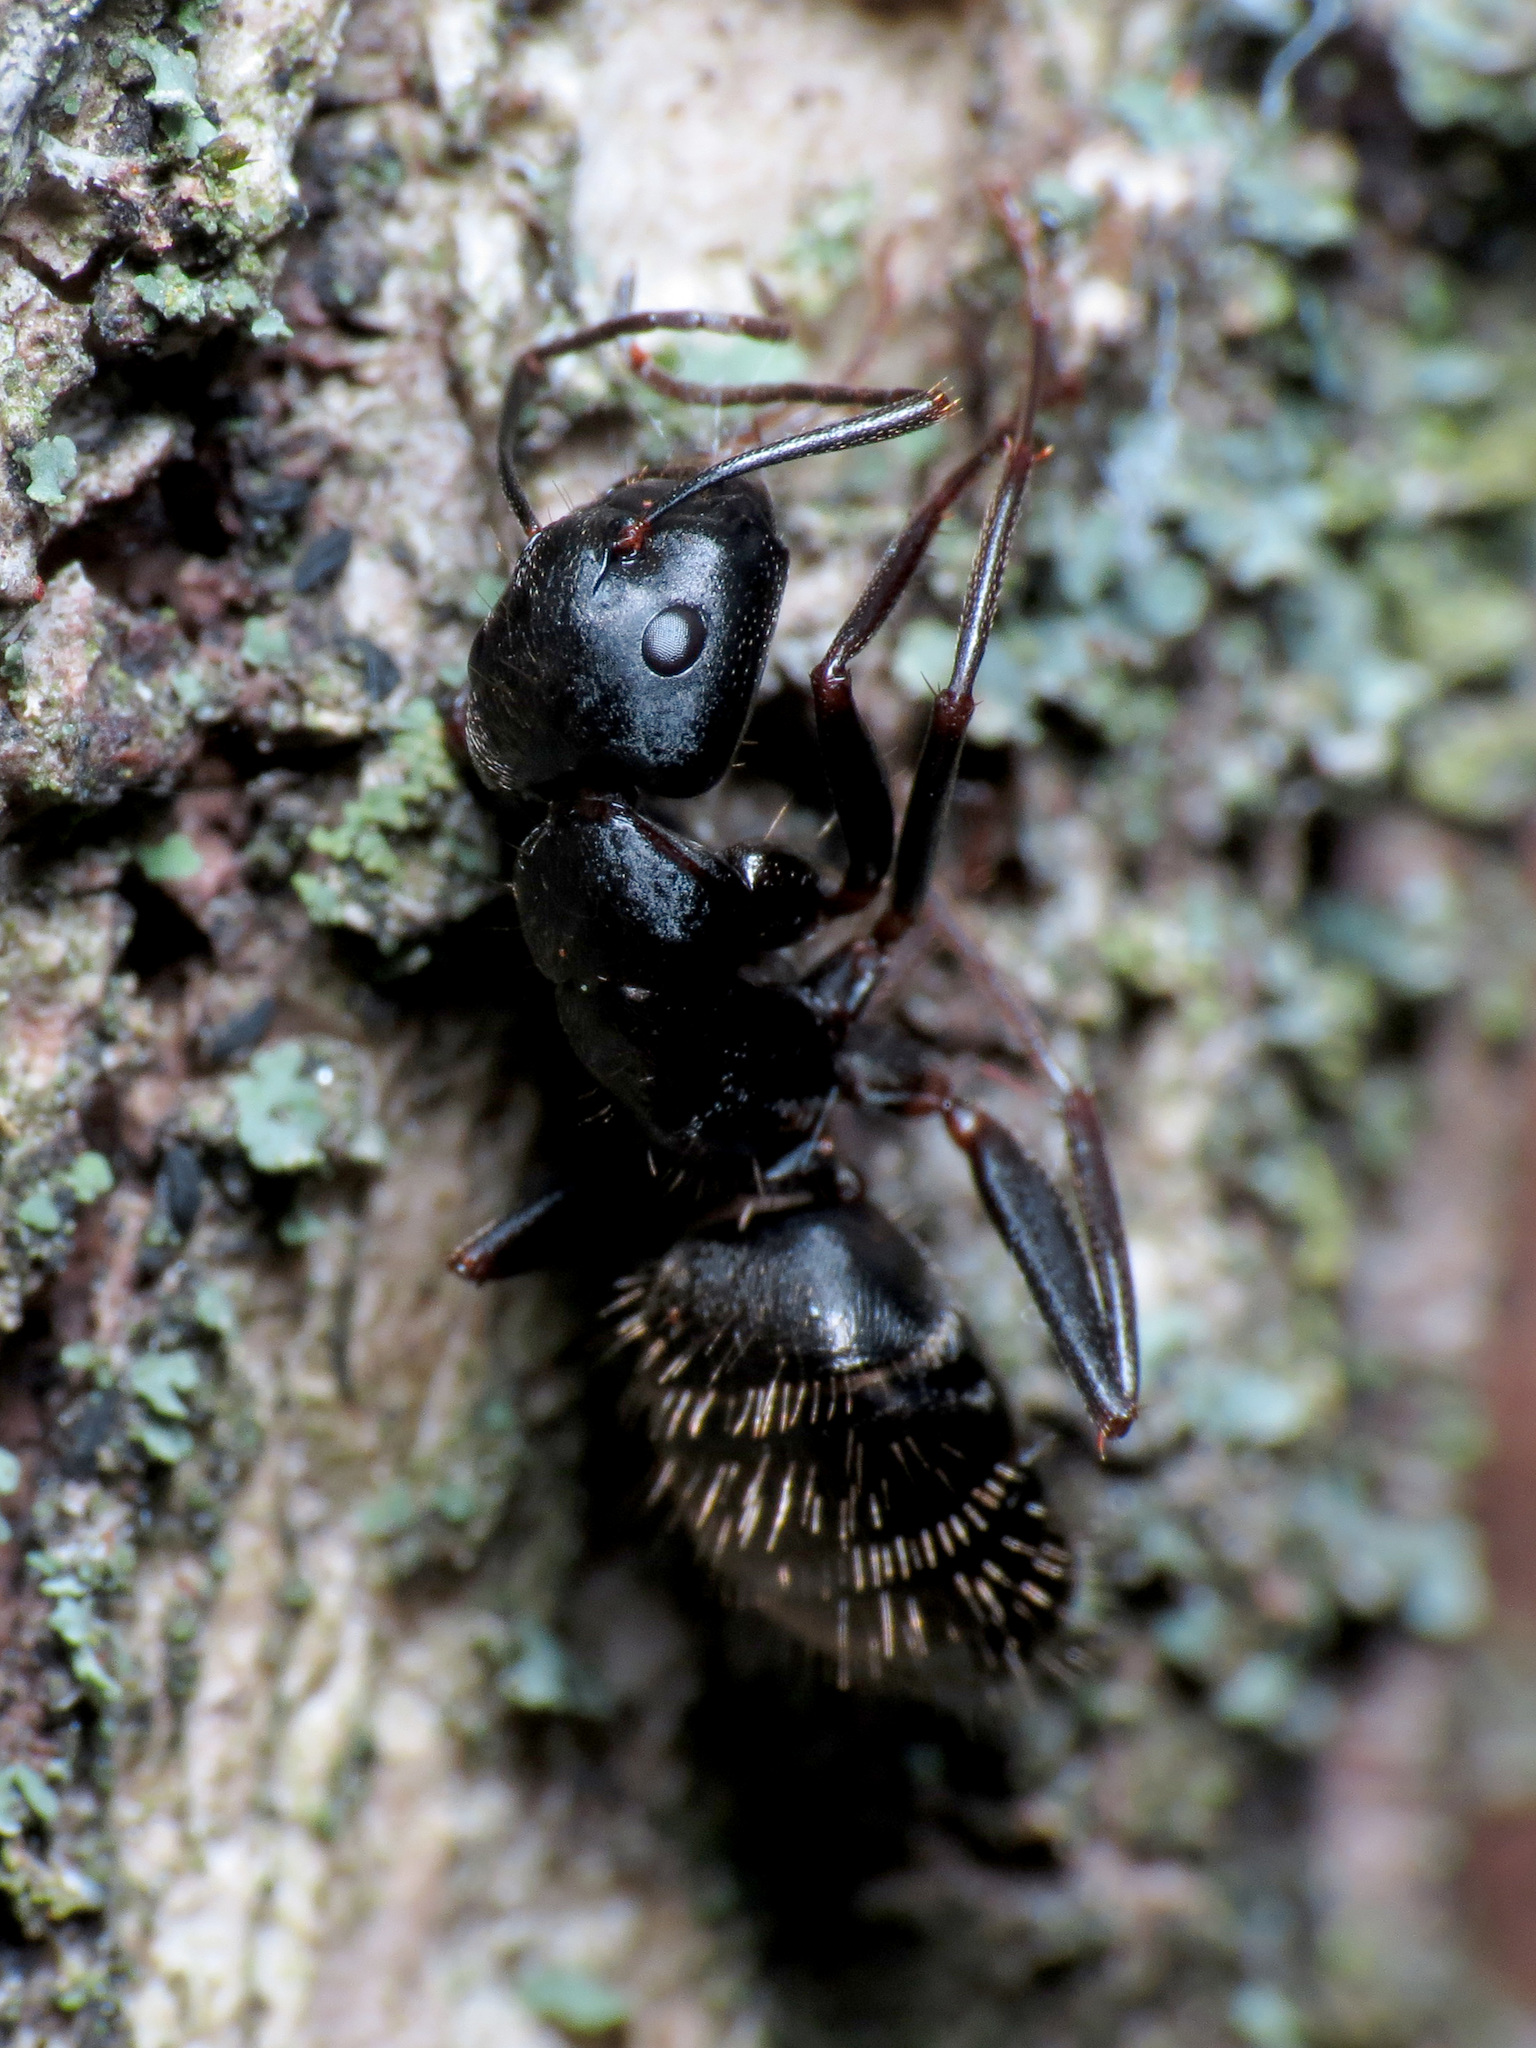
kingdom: Animalia
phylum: Arthropoda
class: Insecta
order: Hymenoptera
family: Formicidae
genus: Camponotus
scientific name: Camponotus pennsylvanicus
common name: Black carpenter ant
